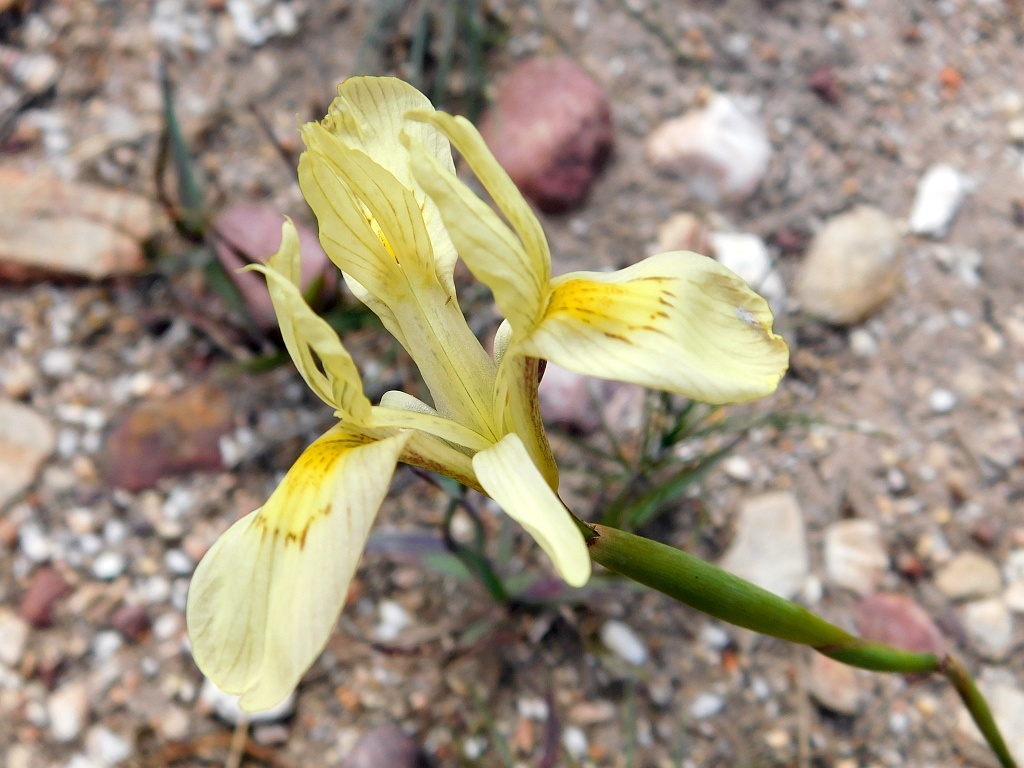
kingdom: Plantae
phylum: Tracheophyta
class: Liliopsida
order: Asparagales
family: Iridaceae
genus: Moraea
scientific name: Moraea angusta
